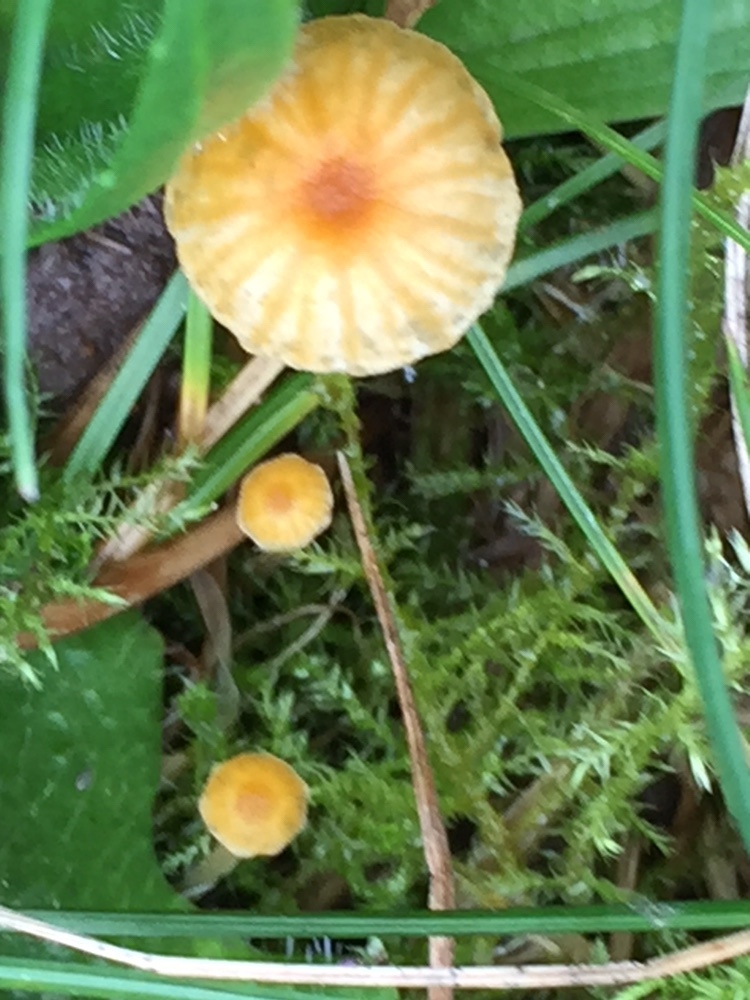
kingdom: Fungi
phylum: Basidiomycota
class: Agaricomycetes
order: Hymenochaetales
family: Rickenellaceae
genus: Rickenella
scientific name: Rickenella fibula
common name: Orange mosscap
